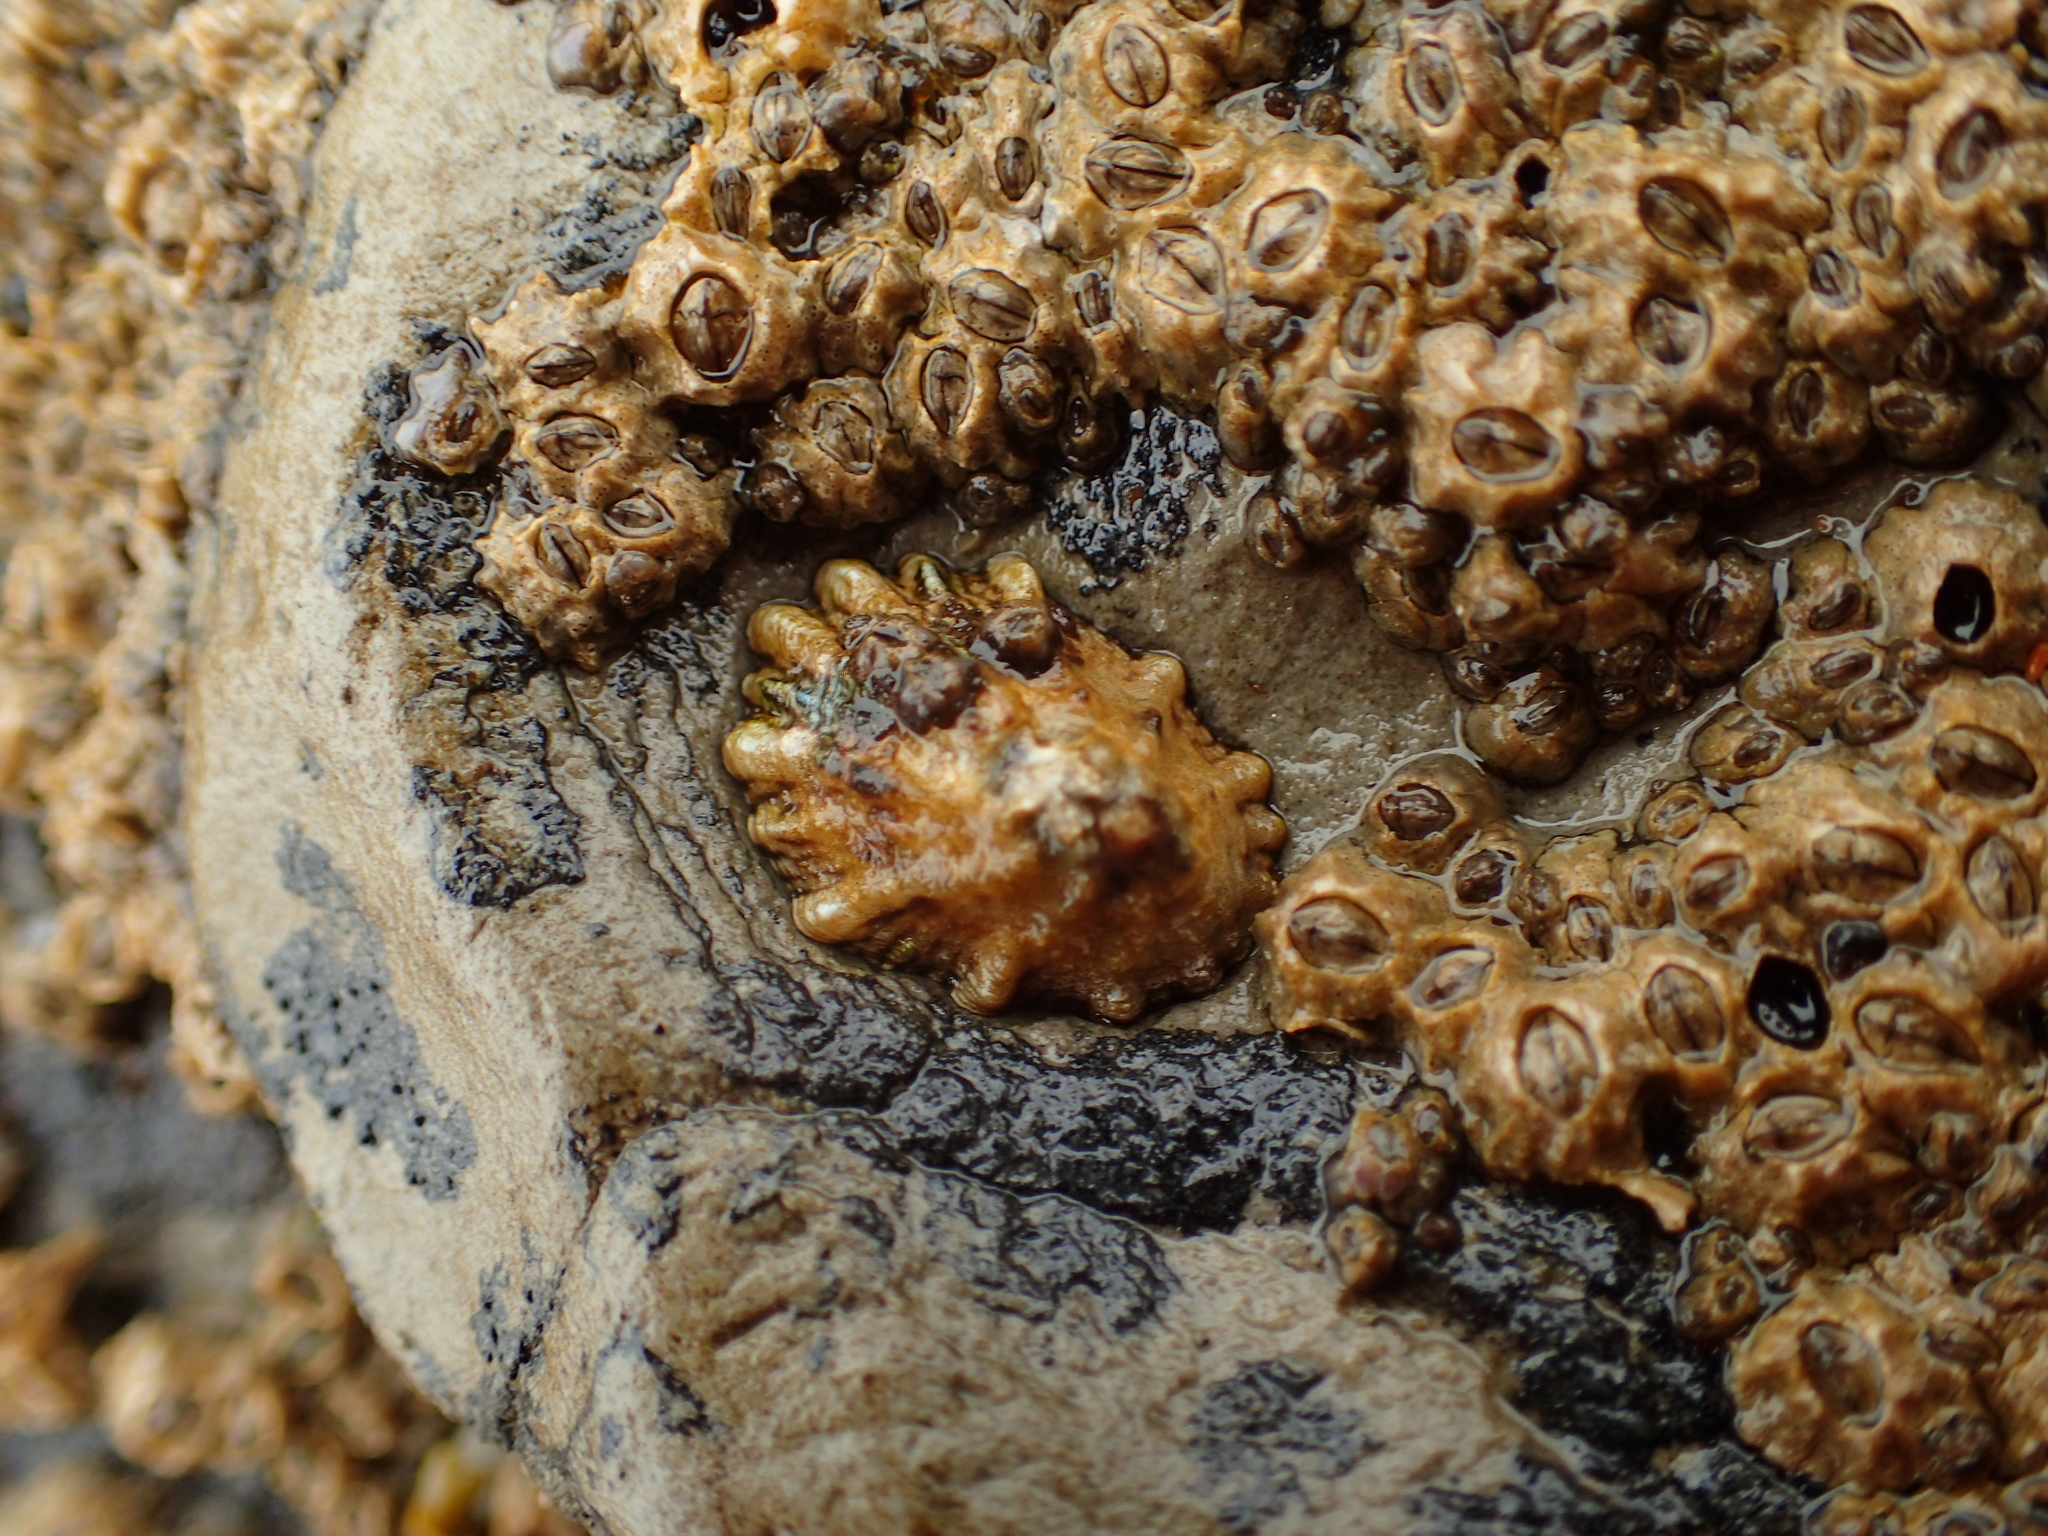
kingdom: Animalia
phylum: Mollusca
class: Gastropoda
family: Lottiidae
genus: Lottia
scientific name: Lottia scabra
